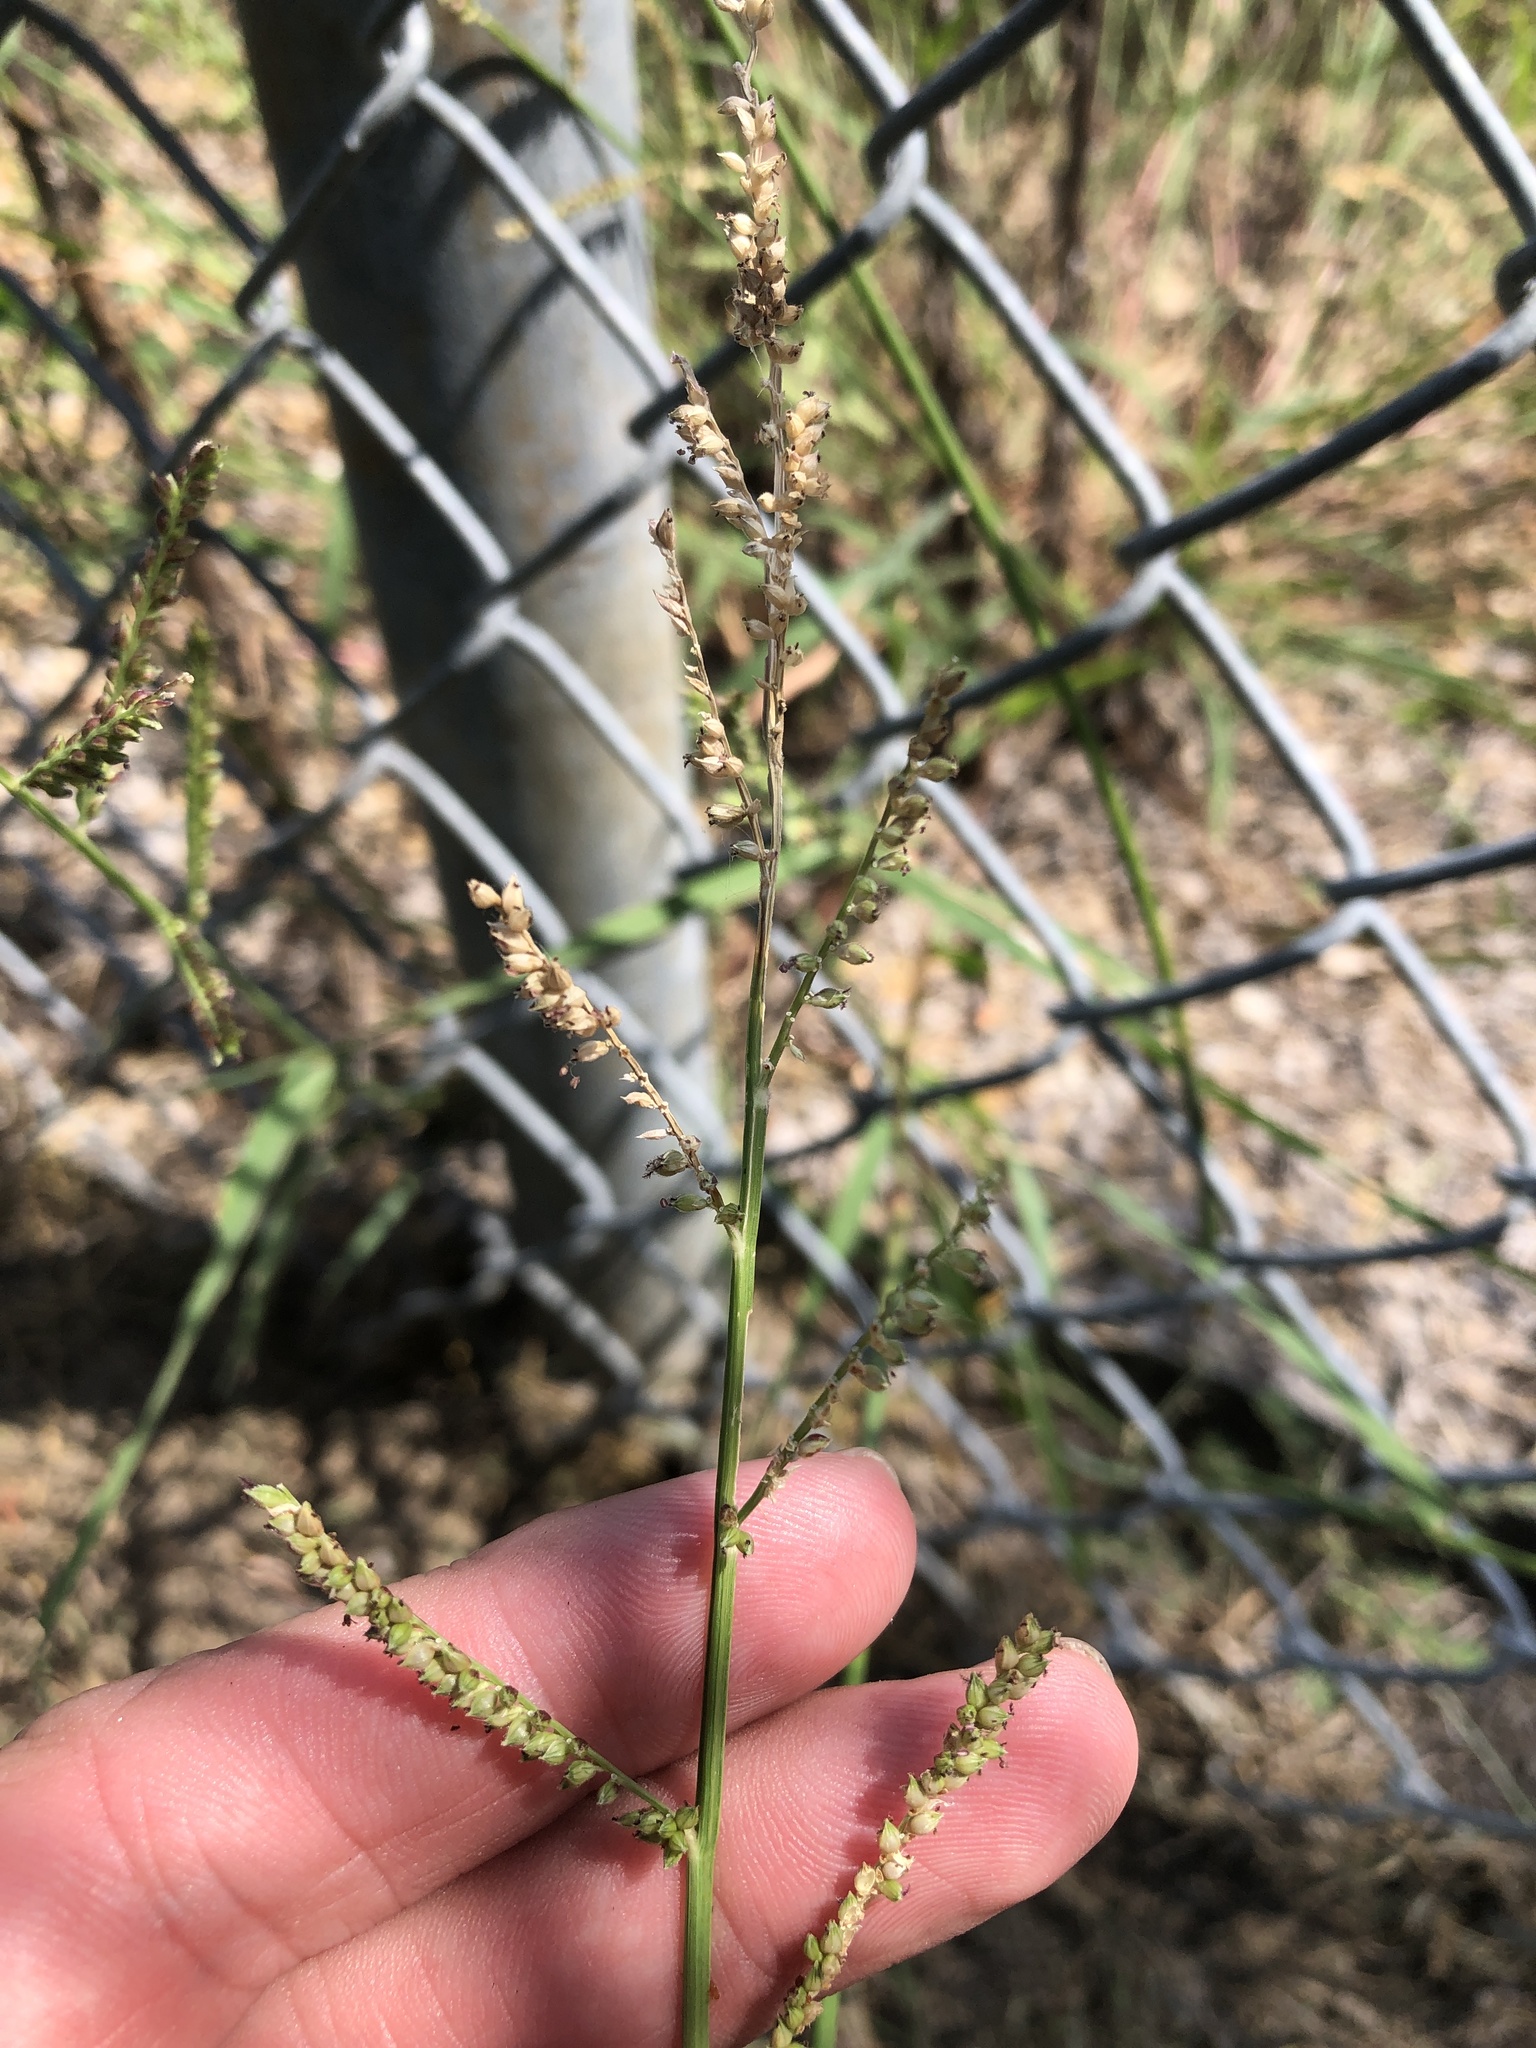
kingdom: Plantae
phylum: Tracheophyta
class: Liliopsida
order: Poales
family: Poaceae
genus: Echinochloa
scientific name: Echinochloa colonum
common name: Jungle rice
